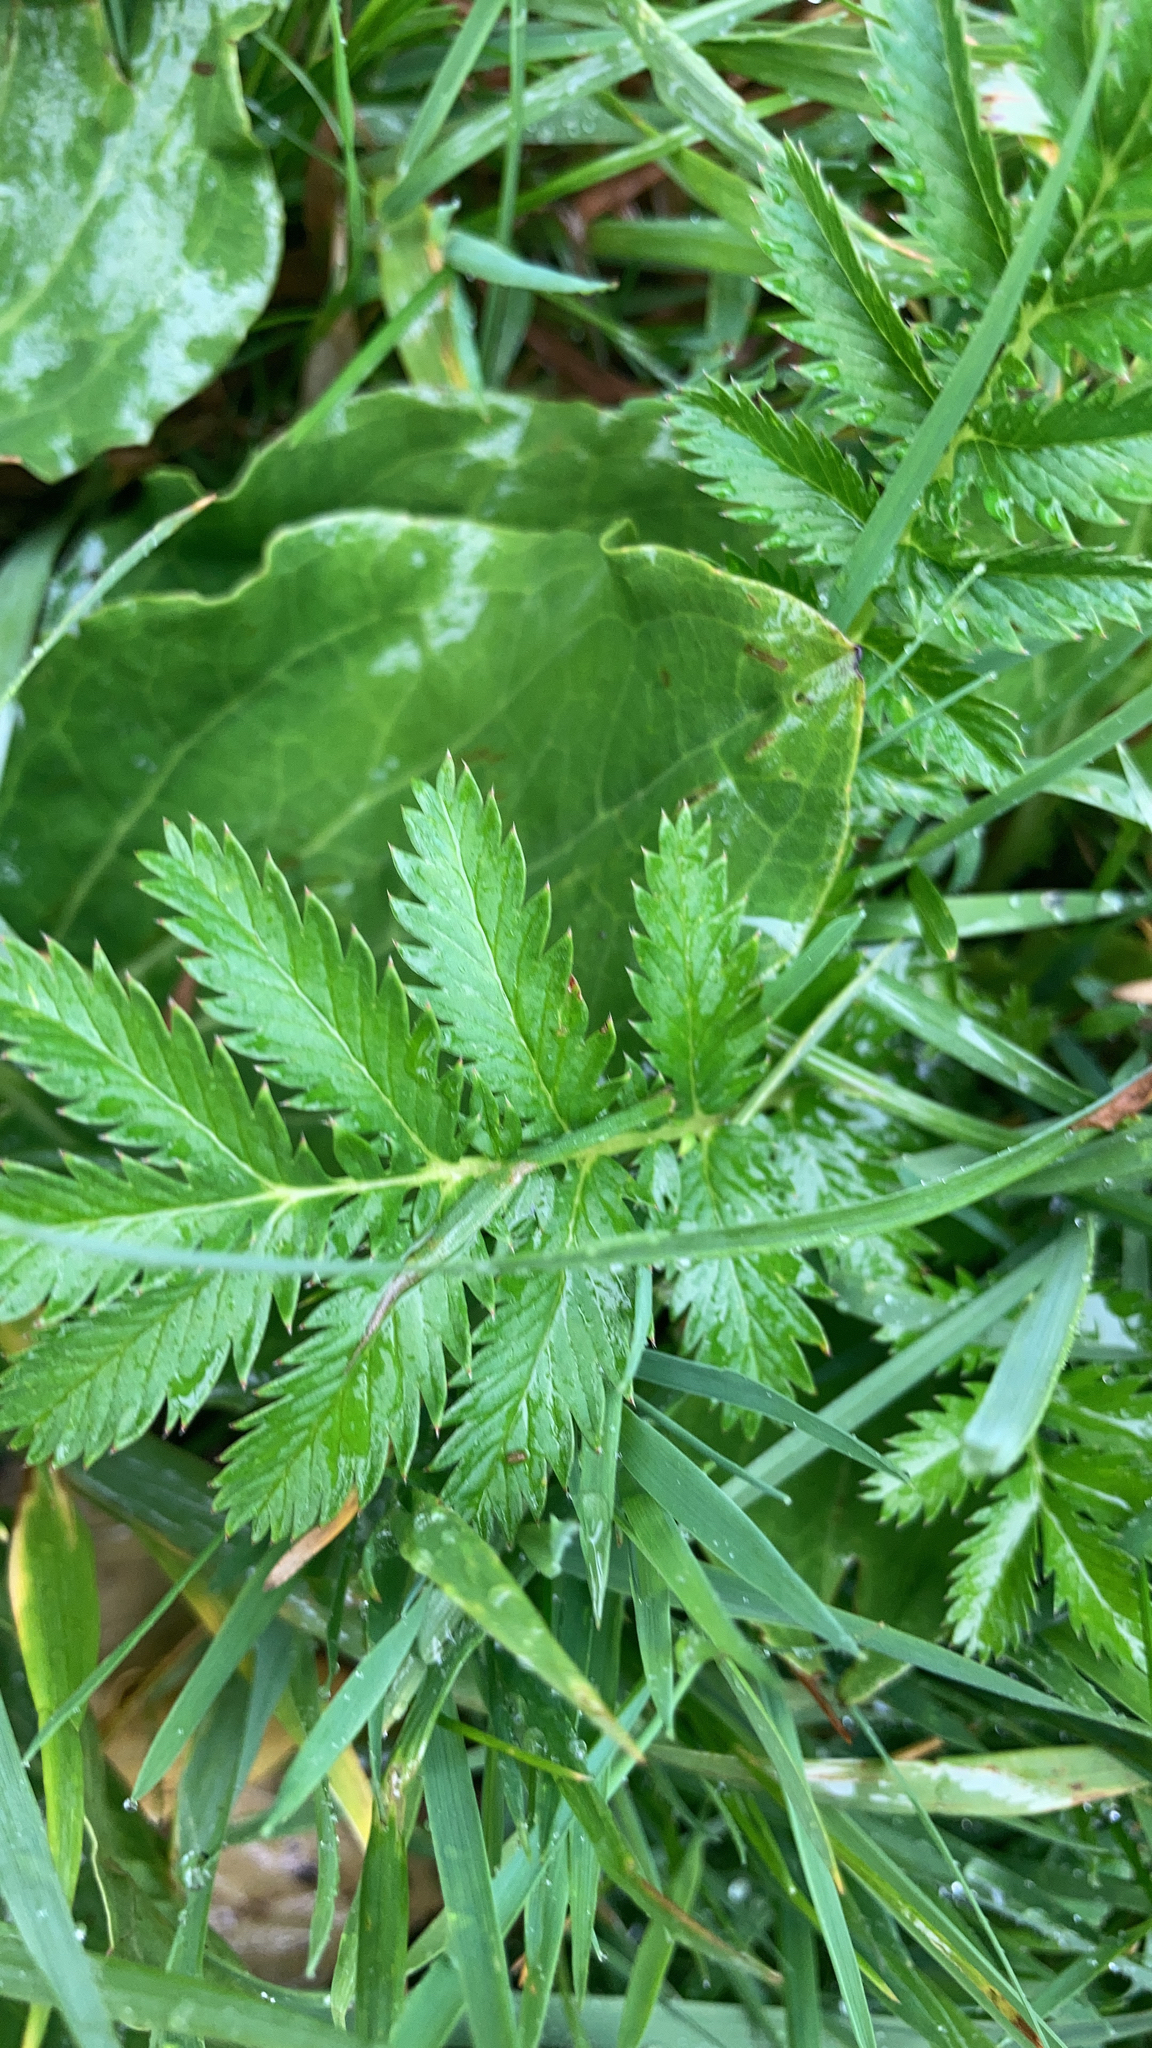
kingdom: Plantae
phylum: Tracheophyta
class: Magnoliopsida
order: Rosales
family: Rosaceae
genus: Argentina
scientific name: Argentina anserina
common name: Common silverweed
